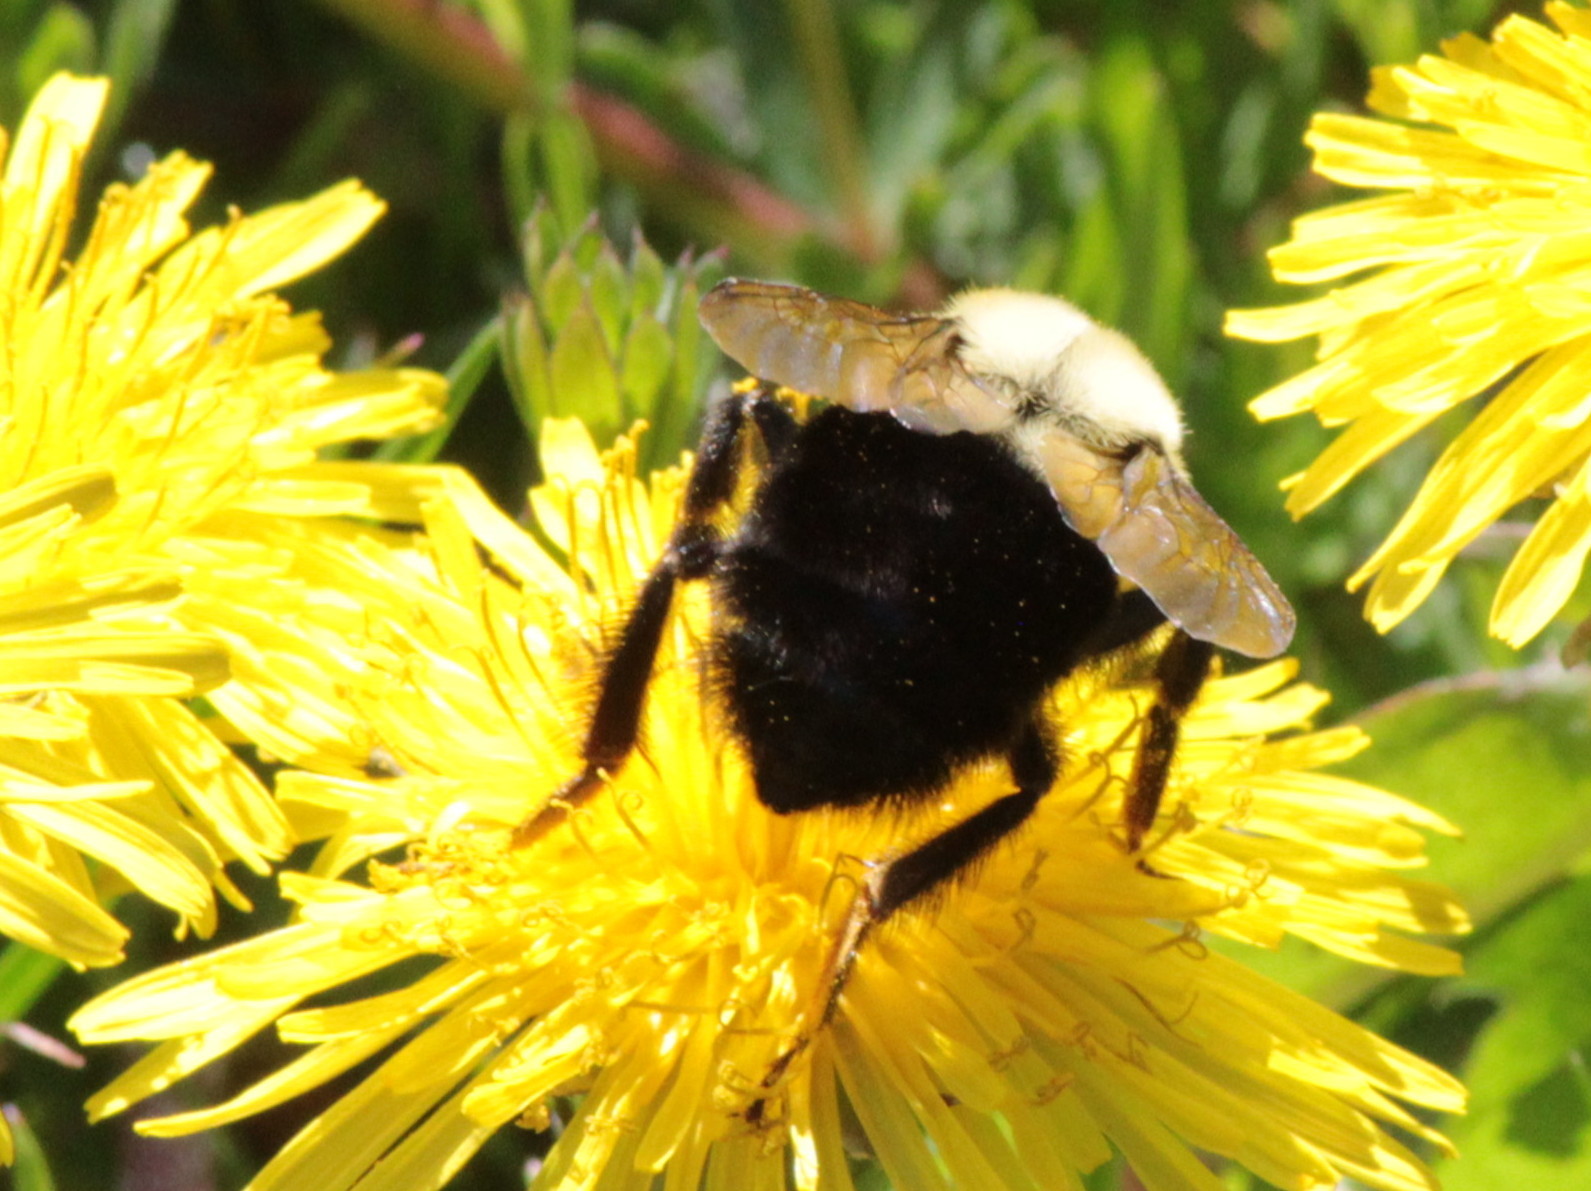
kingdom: Animalia
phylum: Arthropoda
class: Insecta
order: Hymenoptera
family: Apidae
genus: Bombus
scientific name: Bombus impatiens
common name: Common eastern bumble bee
